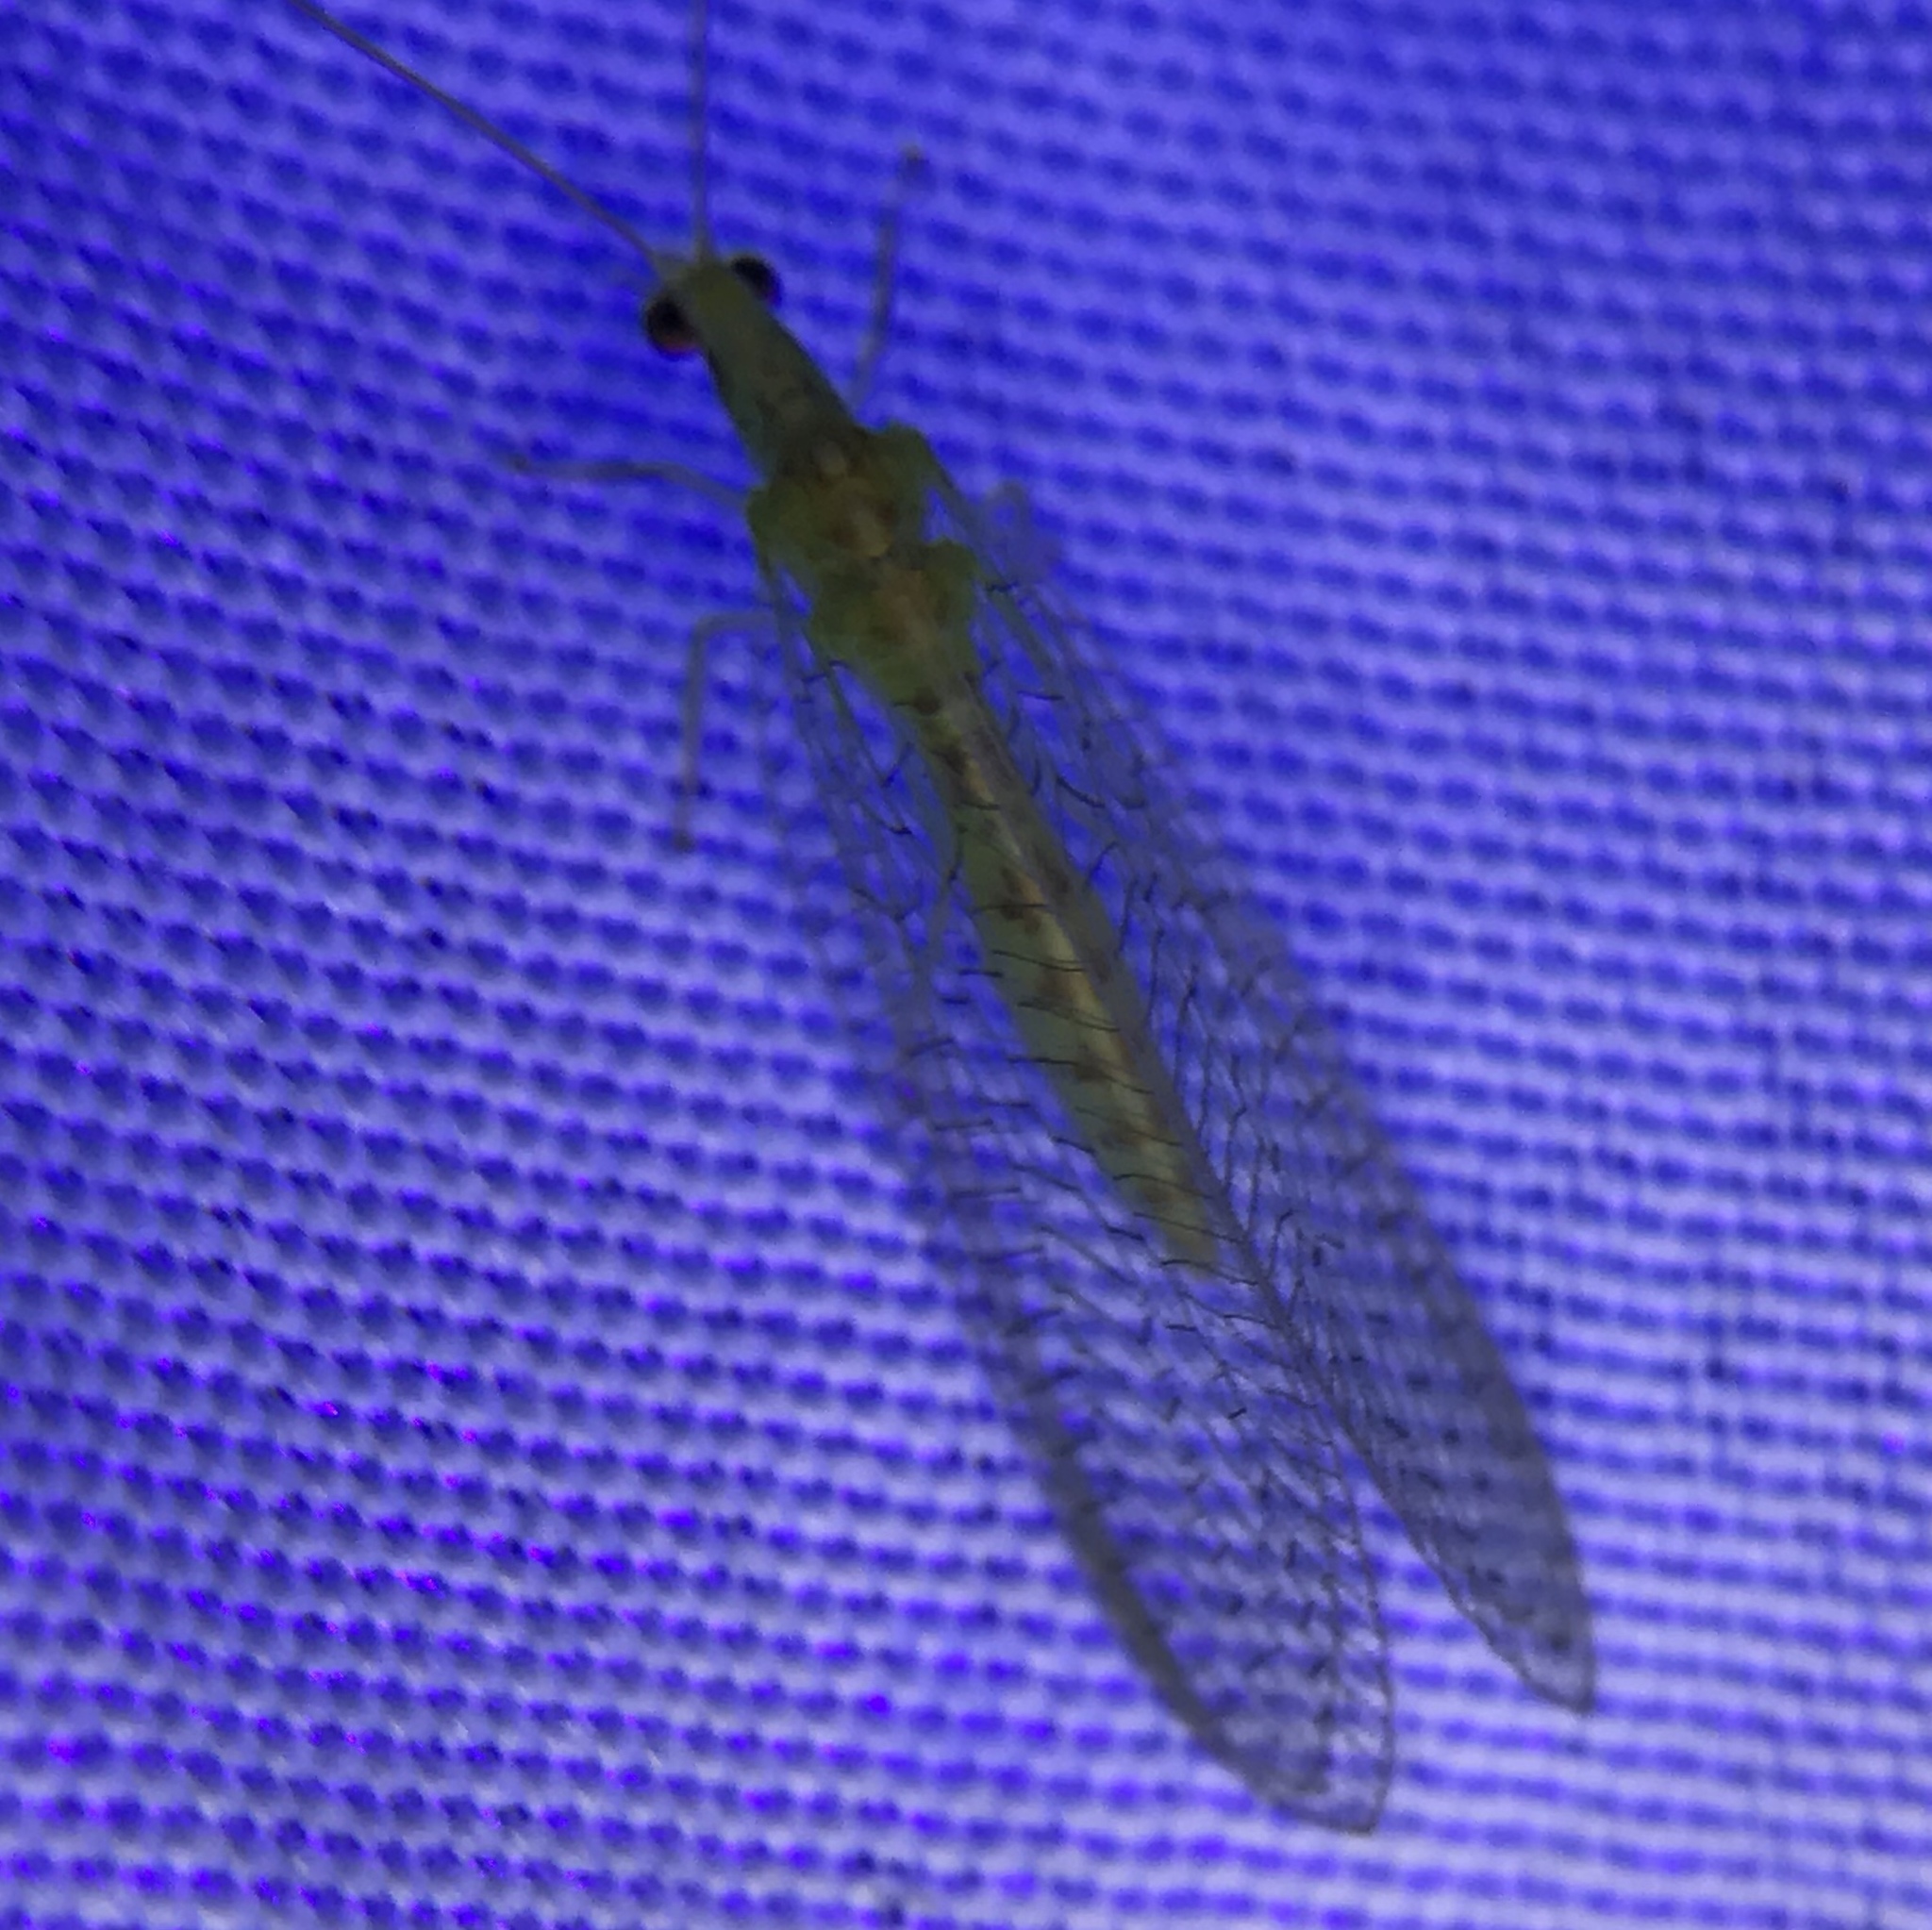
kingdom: Animalia
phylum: Arthropoda
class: Insecta
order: Neuroptera
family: Chrysopidae
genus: Chrysopa
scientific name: Chrysopa quadripunctata
